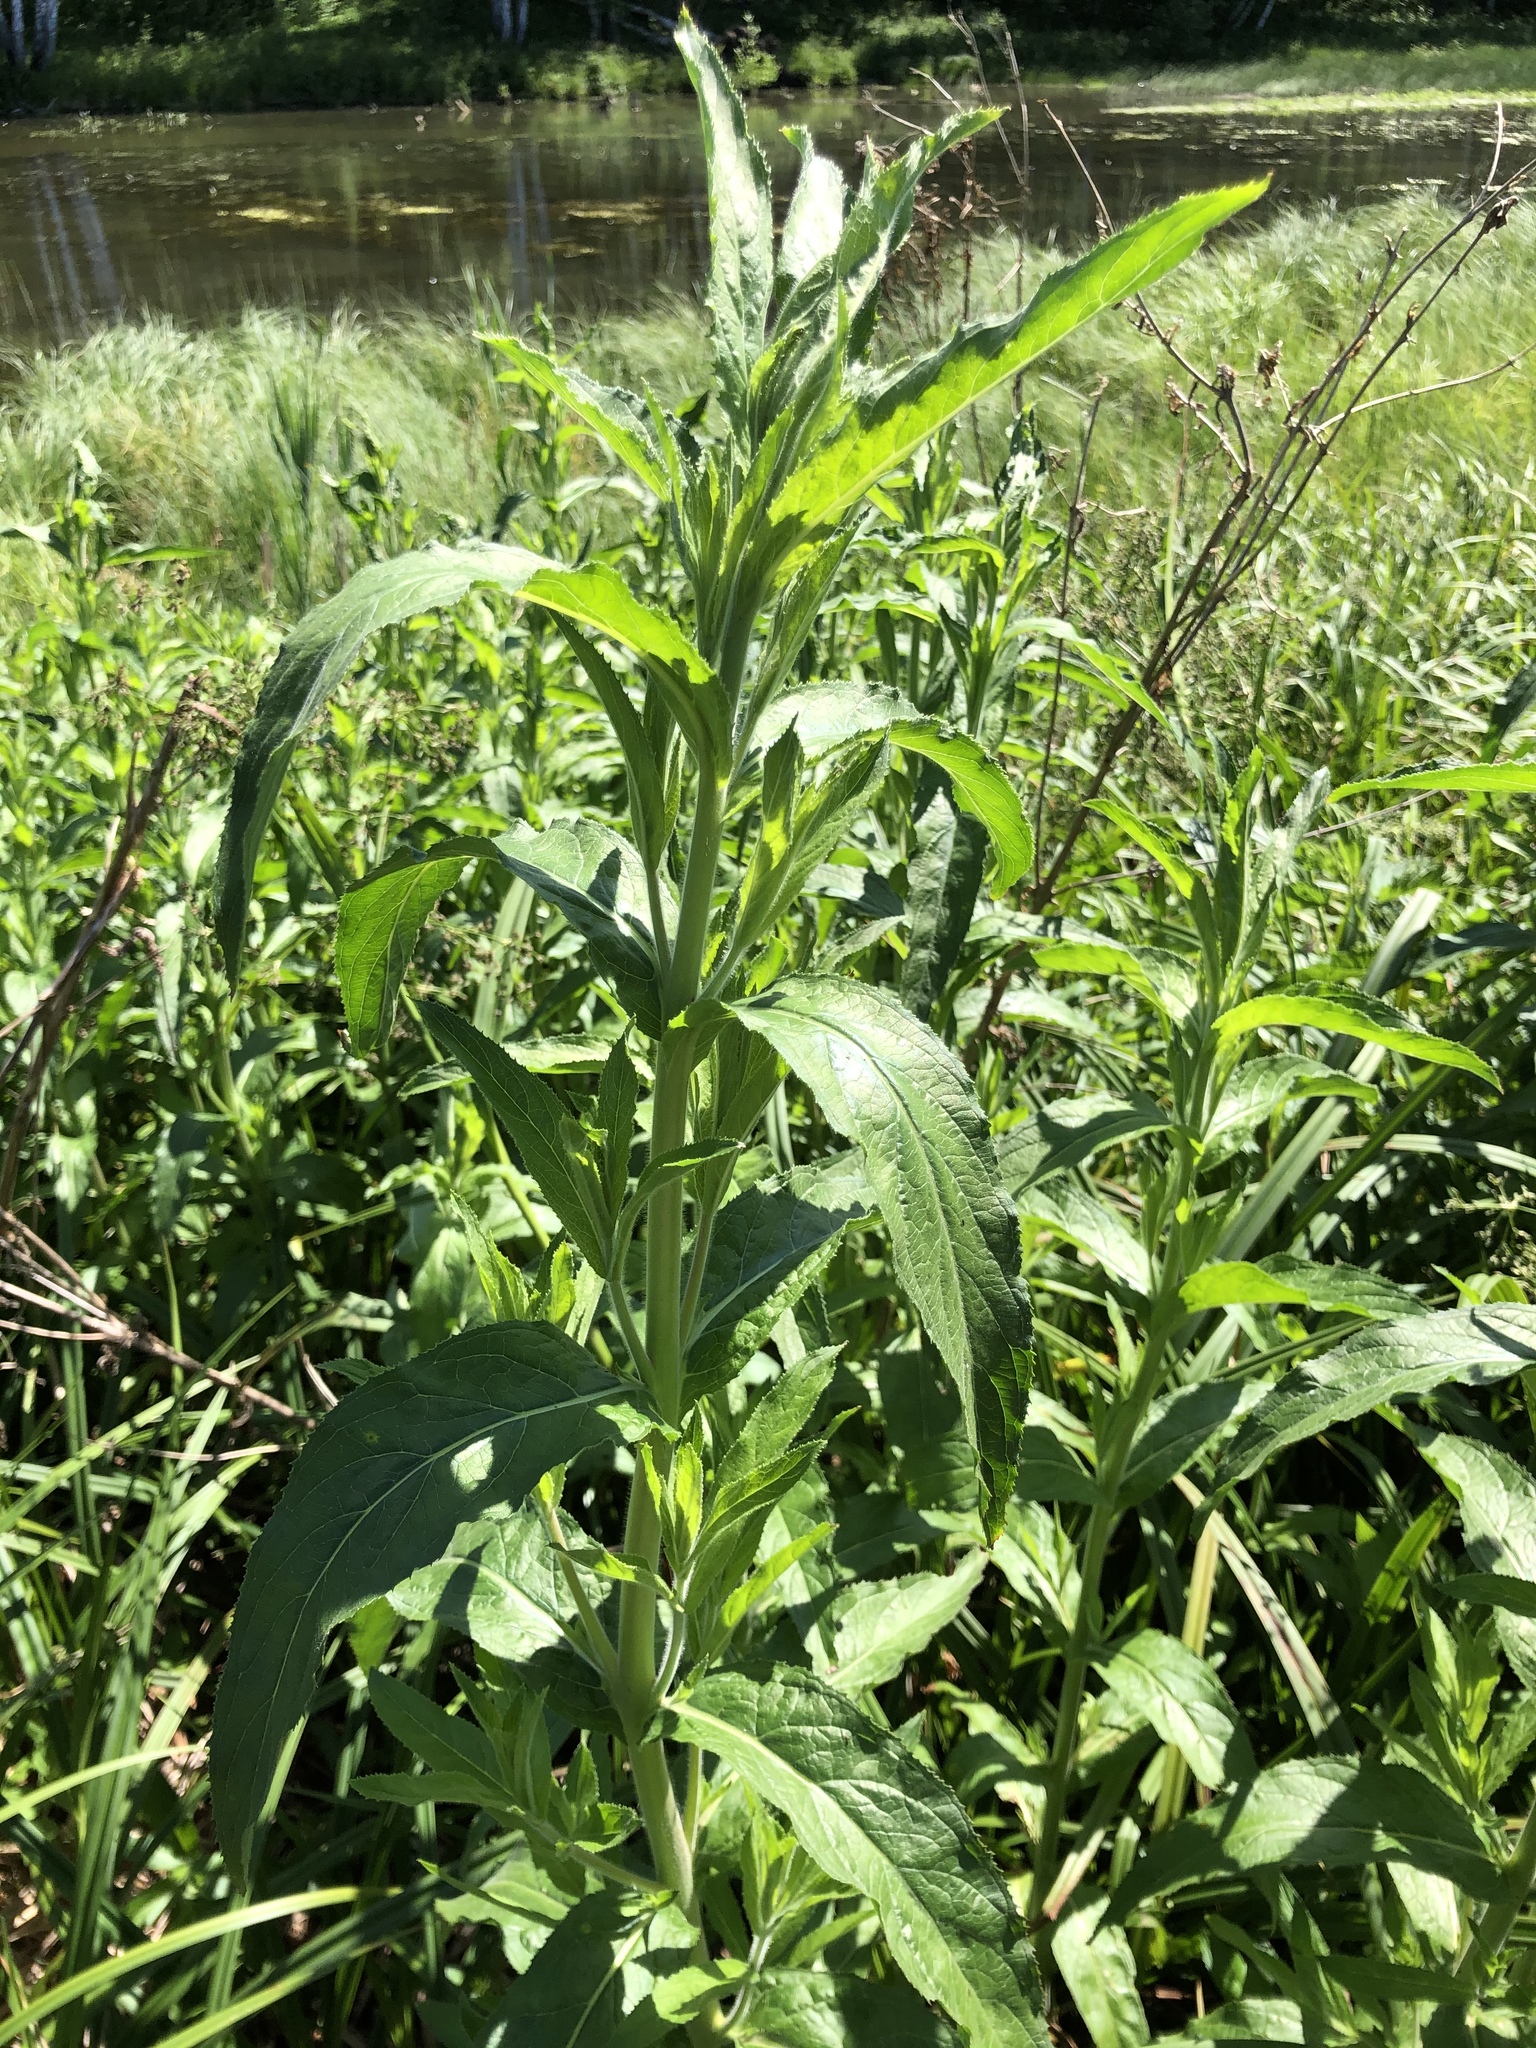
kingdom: Plantae
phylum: Tracheophyta
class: Magnoliopsida
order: Myrtales
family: Onagraceae
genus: Epilobium
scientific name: Epilobium hirsutum
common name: Great willowherb
